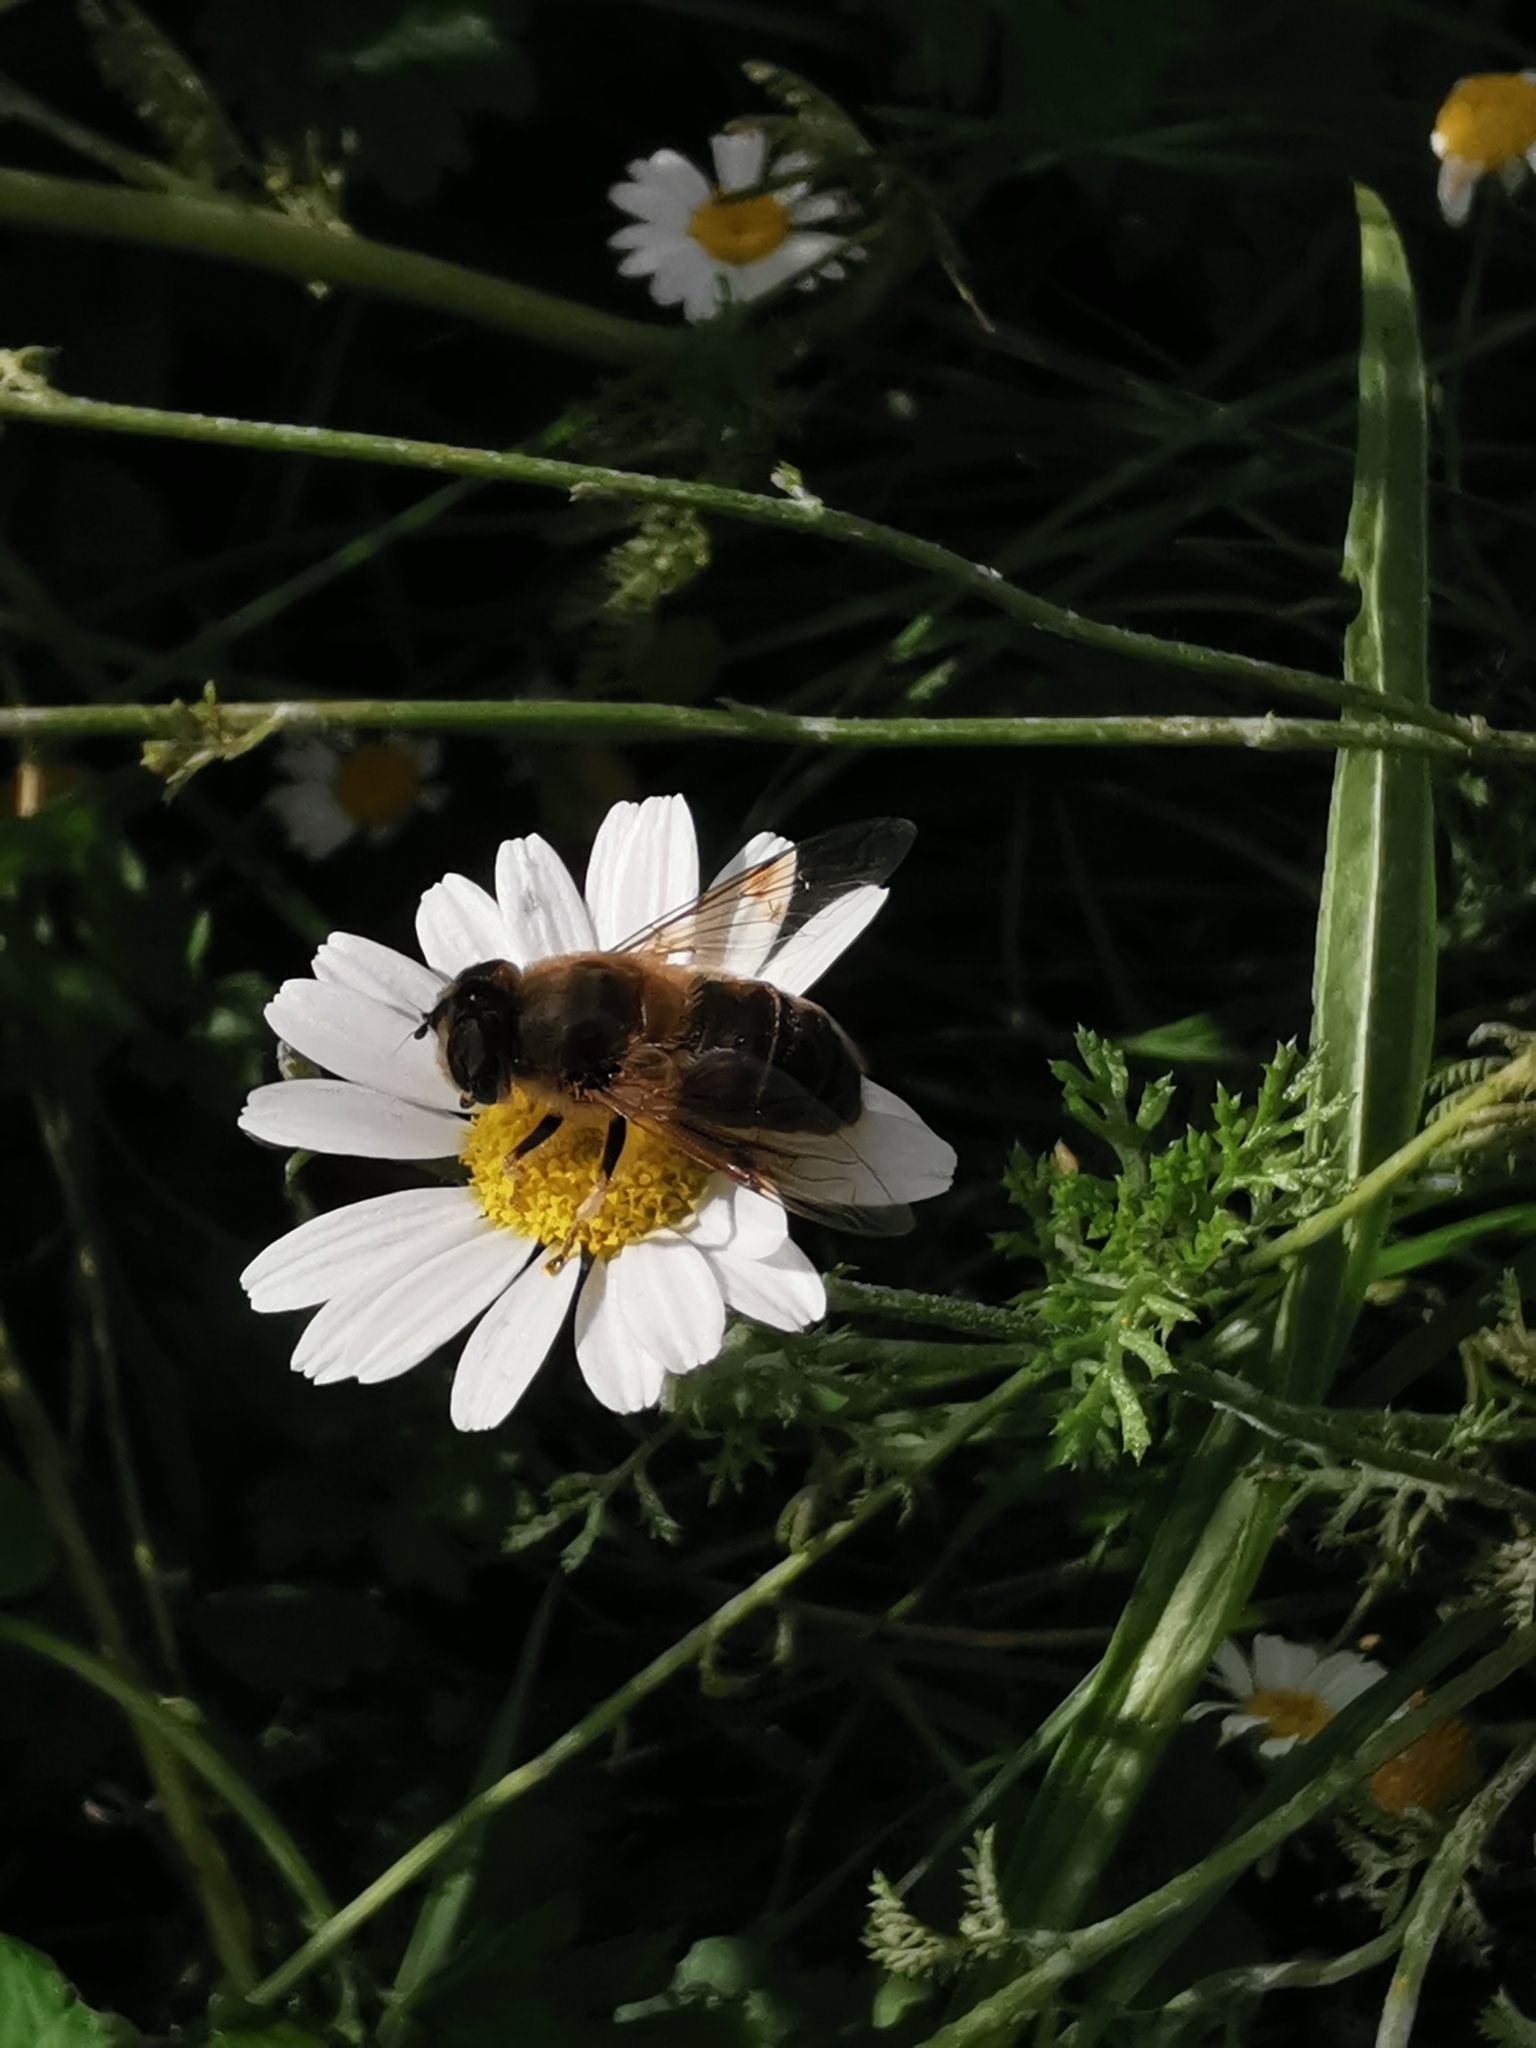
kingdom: Animalia
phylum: Arthropoda
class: Insecta
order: Diptera
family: Syrphidae
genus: Eristalis
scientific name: Eristalis tenax
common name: Drone fly
